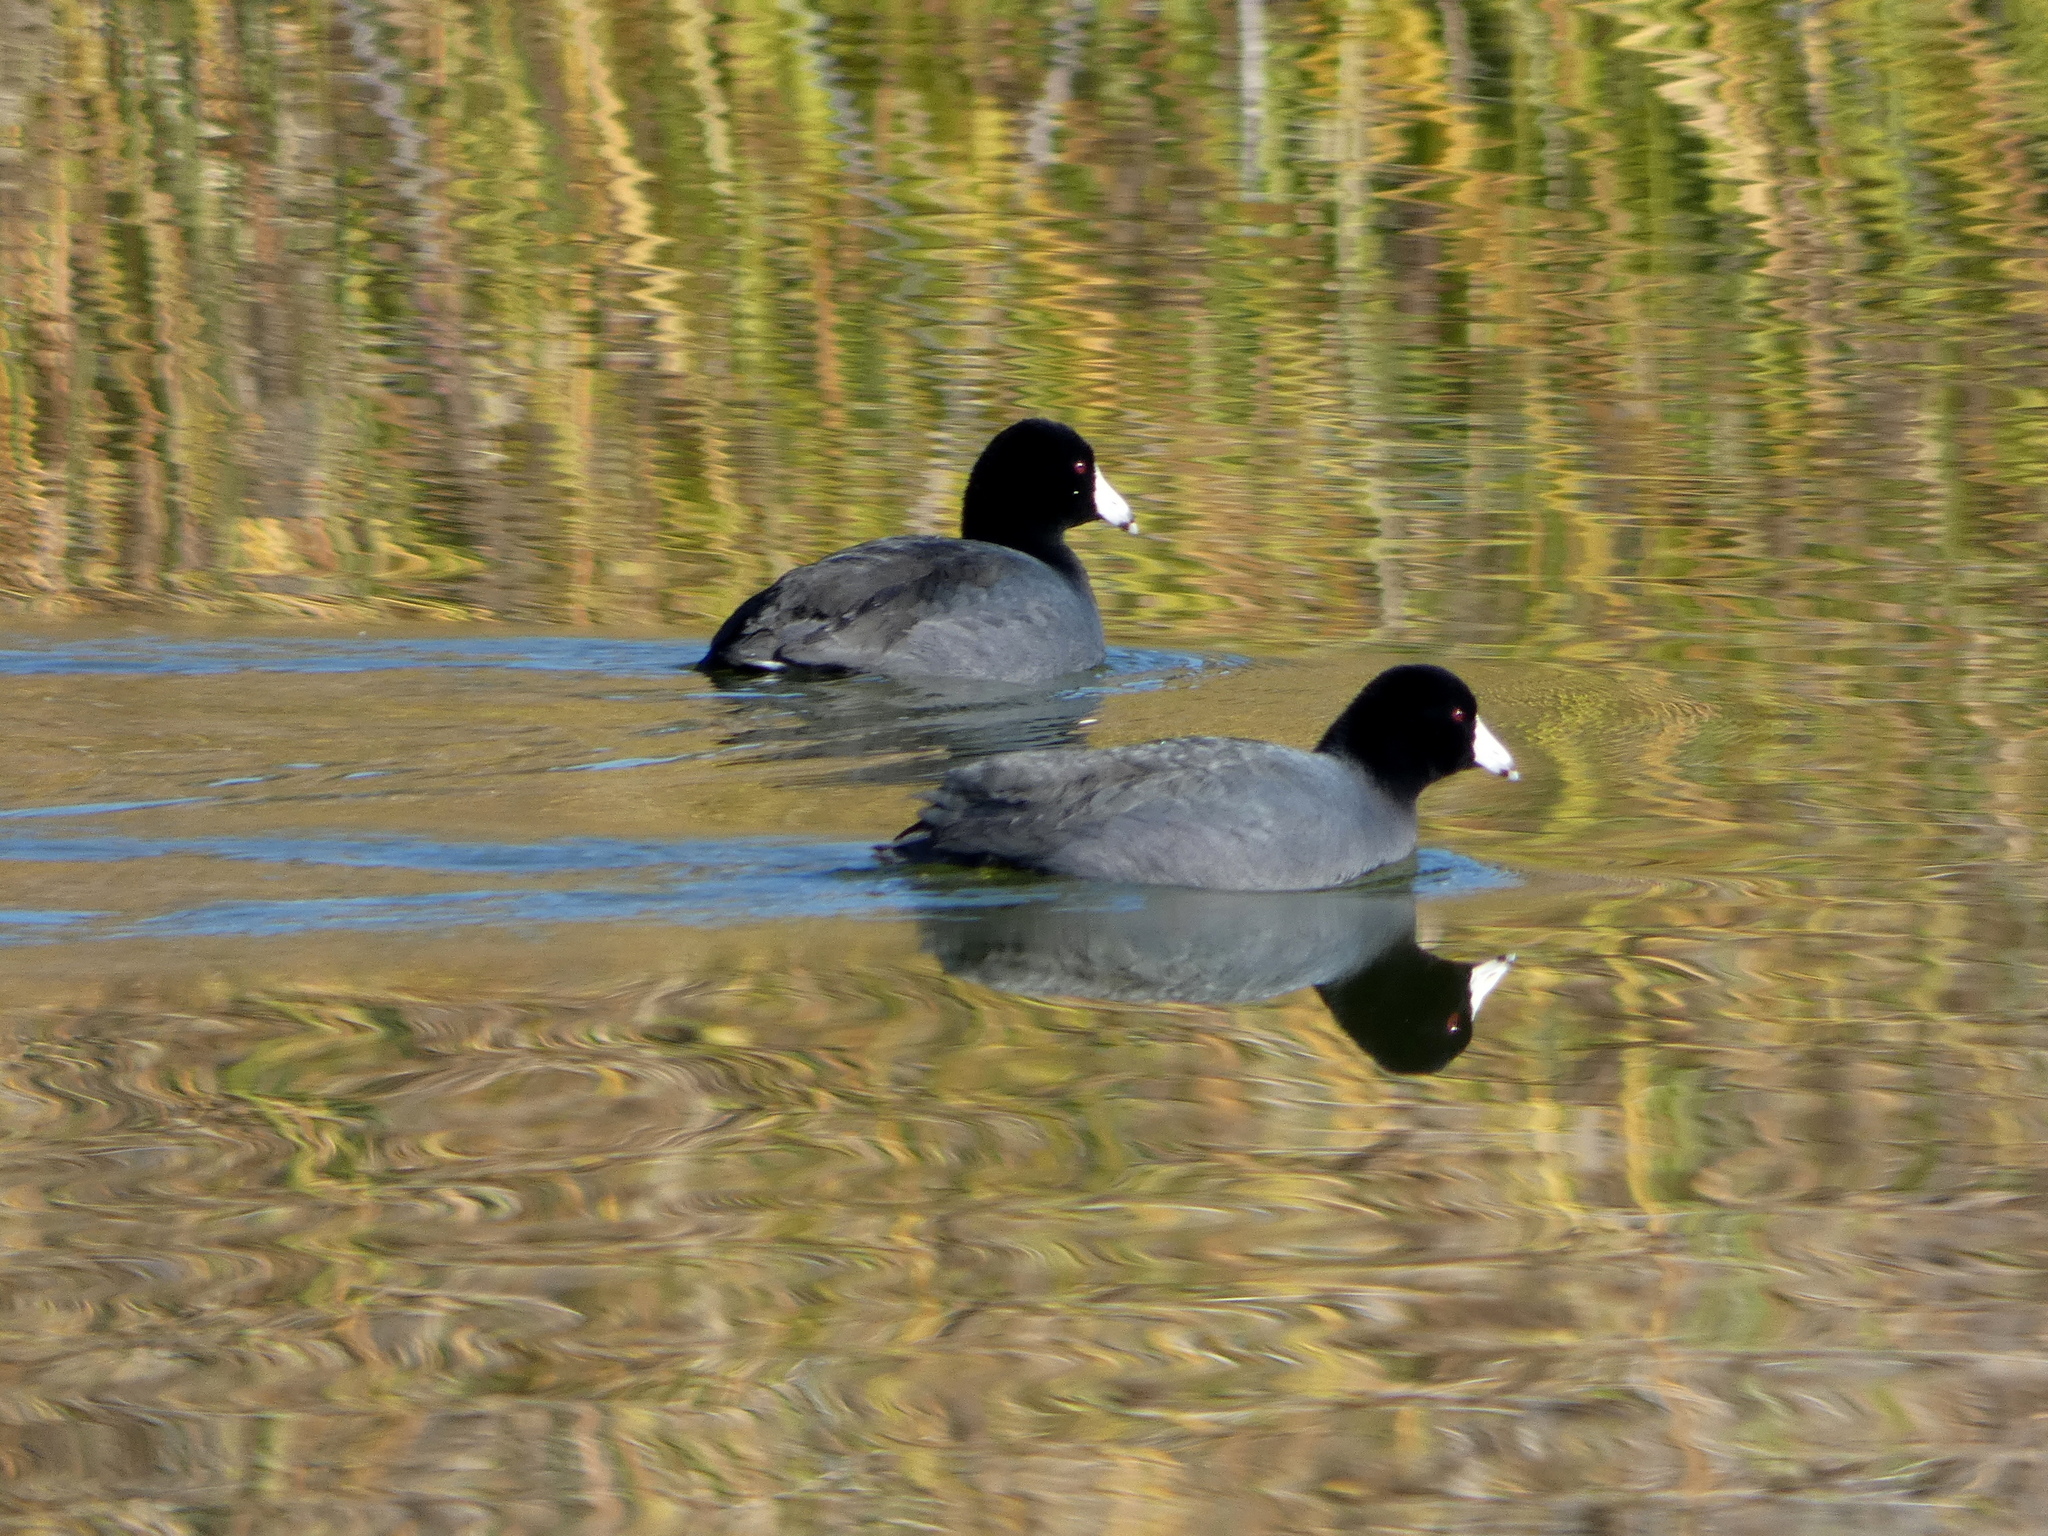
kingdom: Animalia
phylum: Chordata
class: Aves
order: Gruiformes
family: Rallidae
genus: Fulica
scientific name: Fulica americana
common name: American coot
